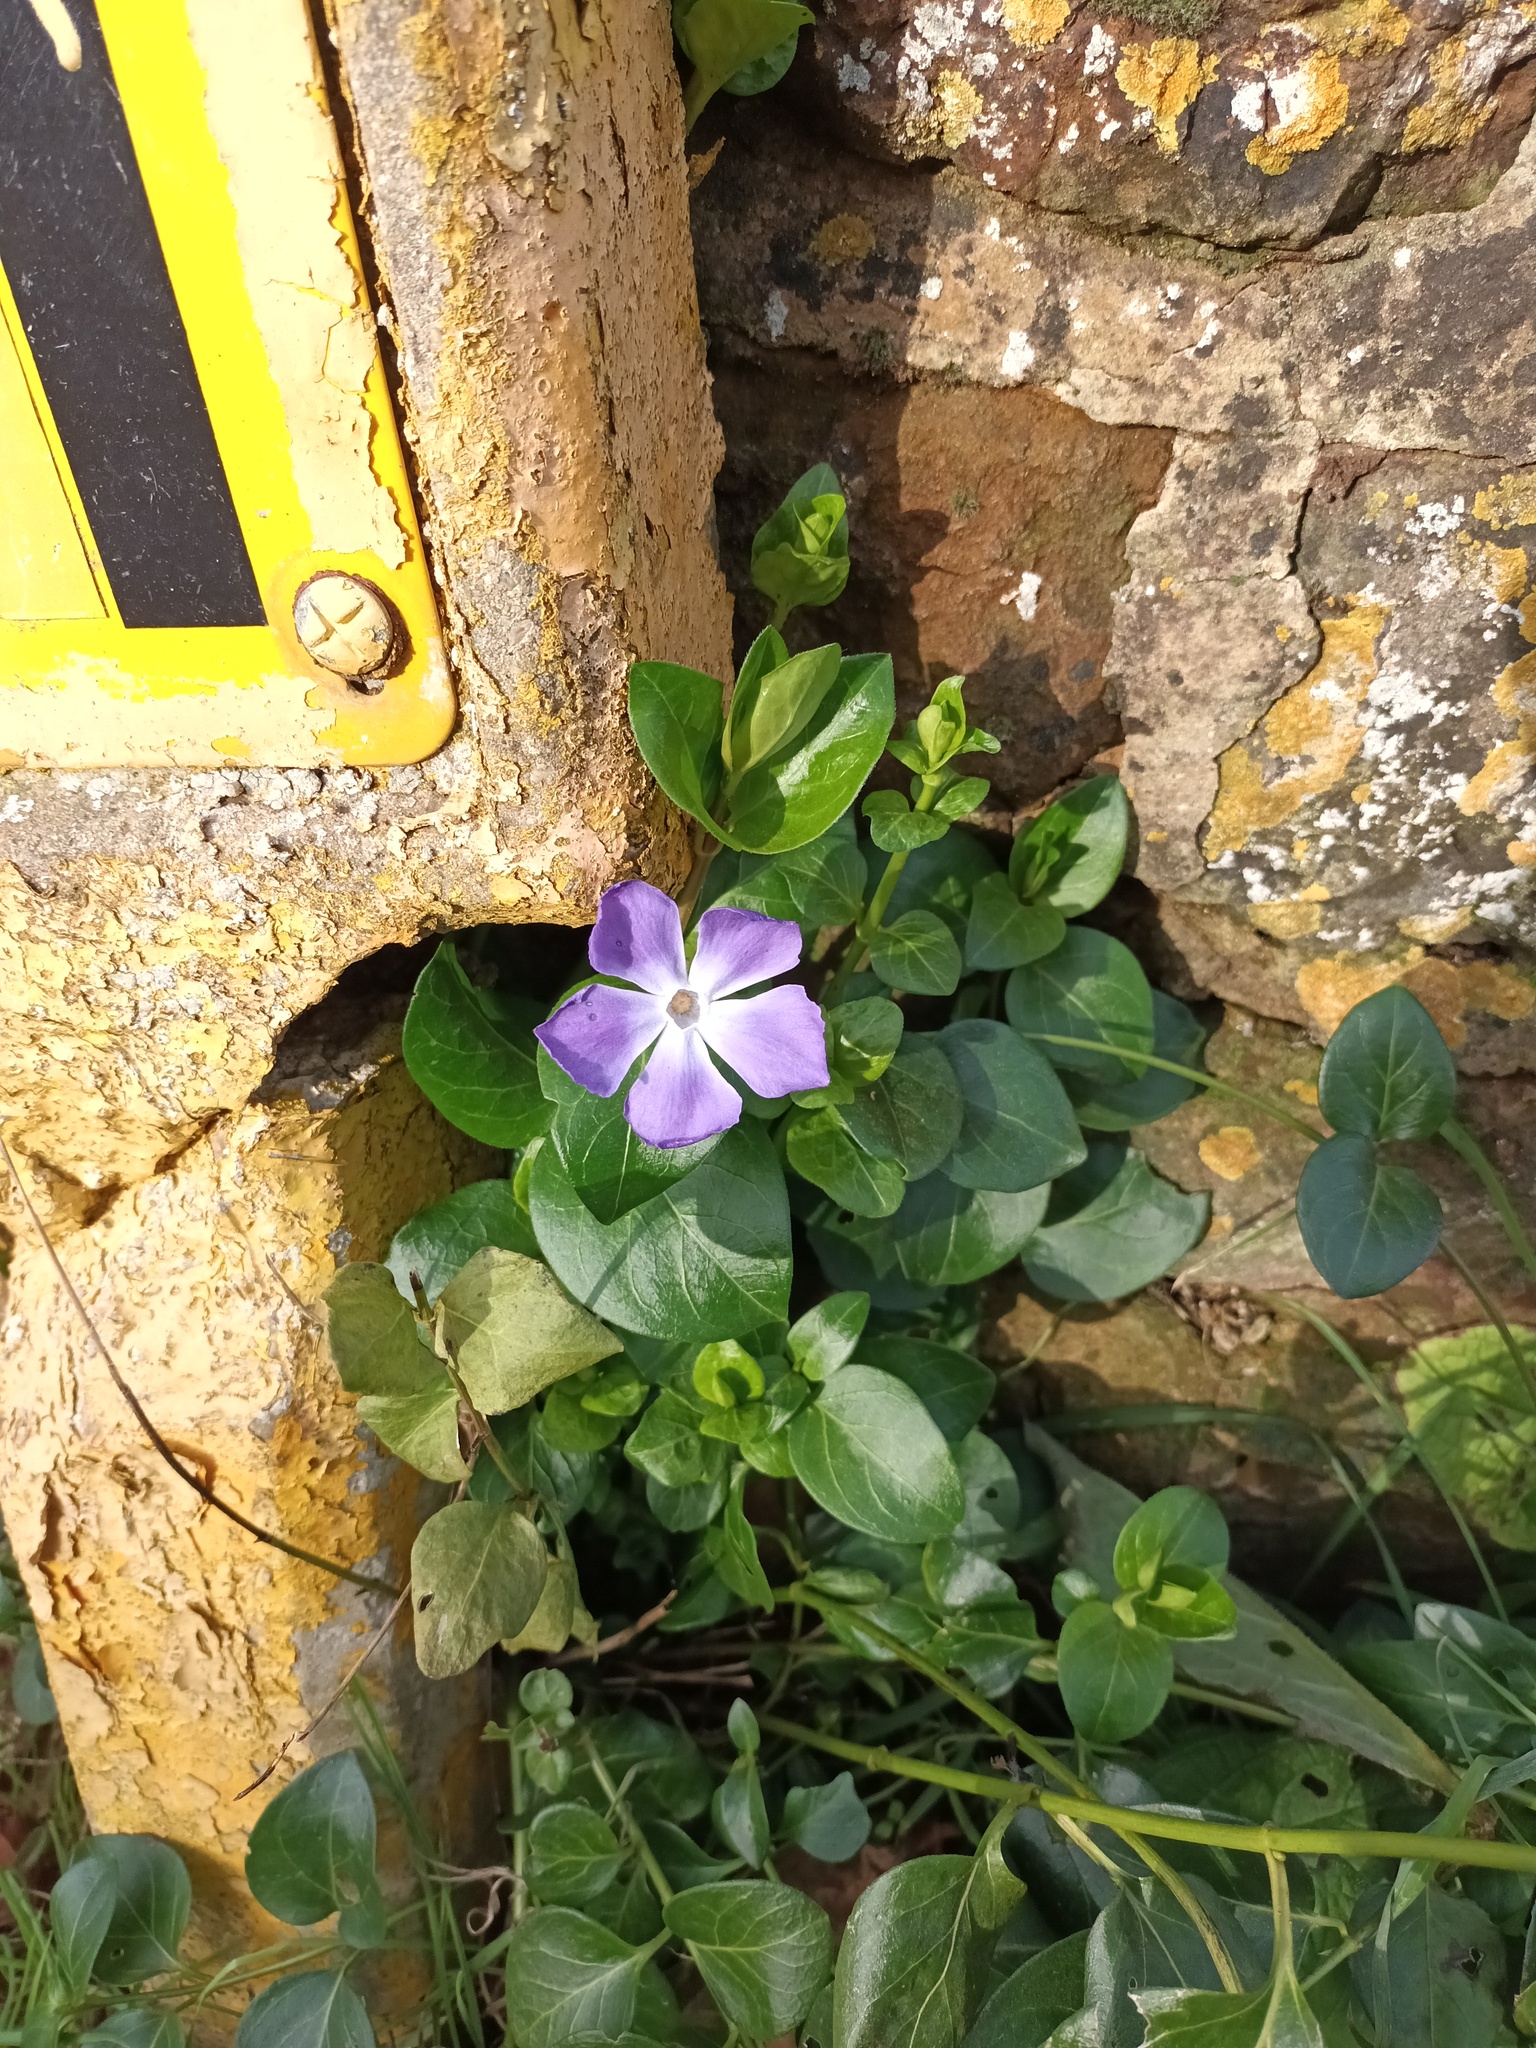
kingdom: Plantae
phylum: Tracheophyta
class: Magnoliopsida
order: Gentianales
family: Apocynaceae
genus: Vinca
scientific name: Vinca major
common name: Greater periwinkle
